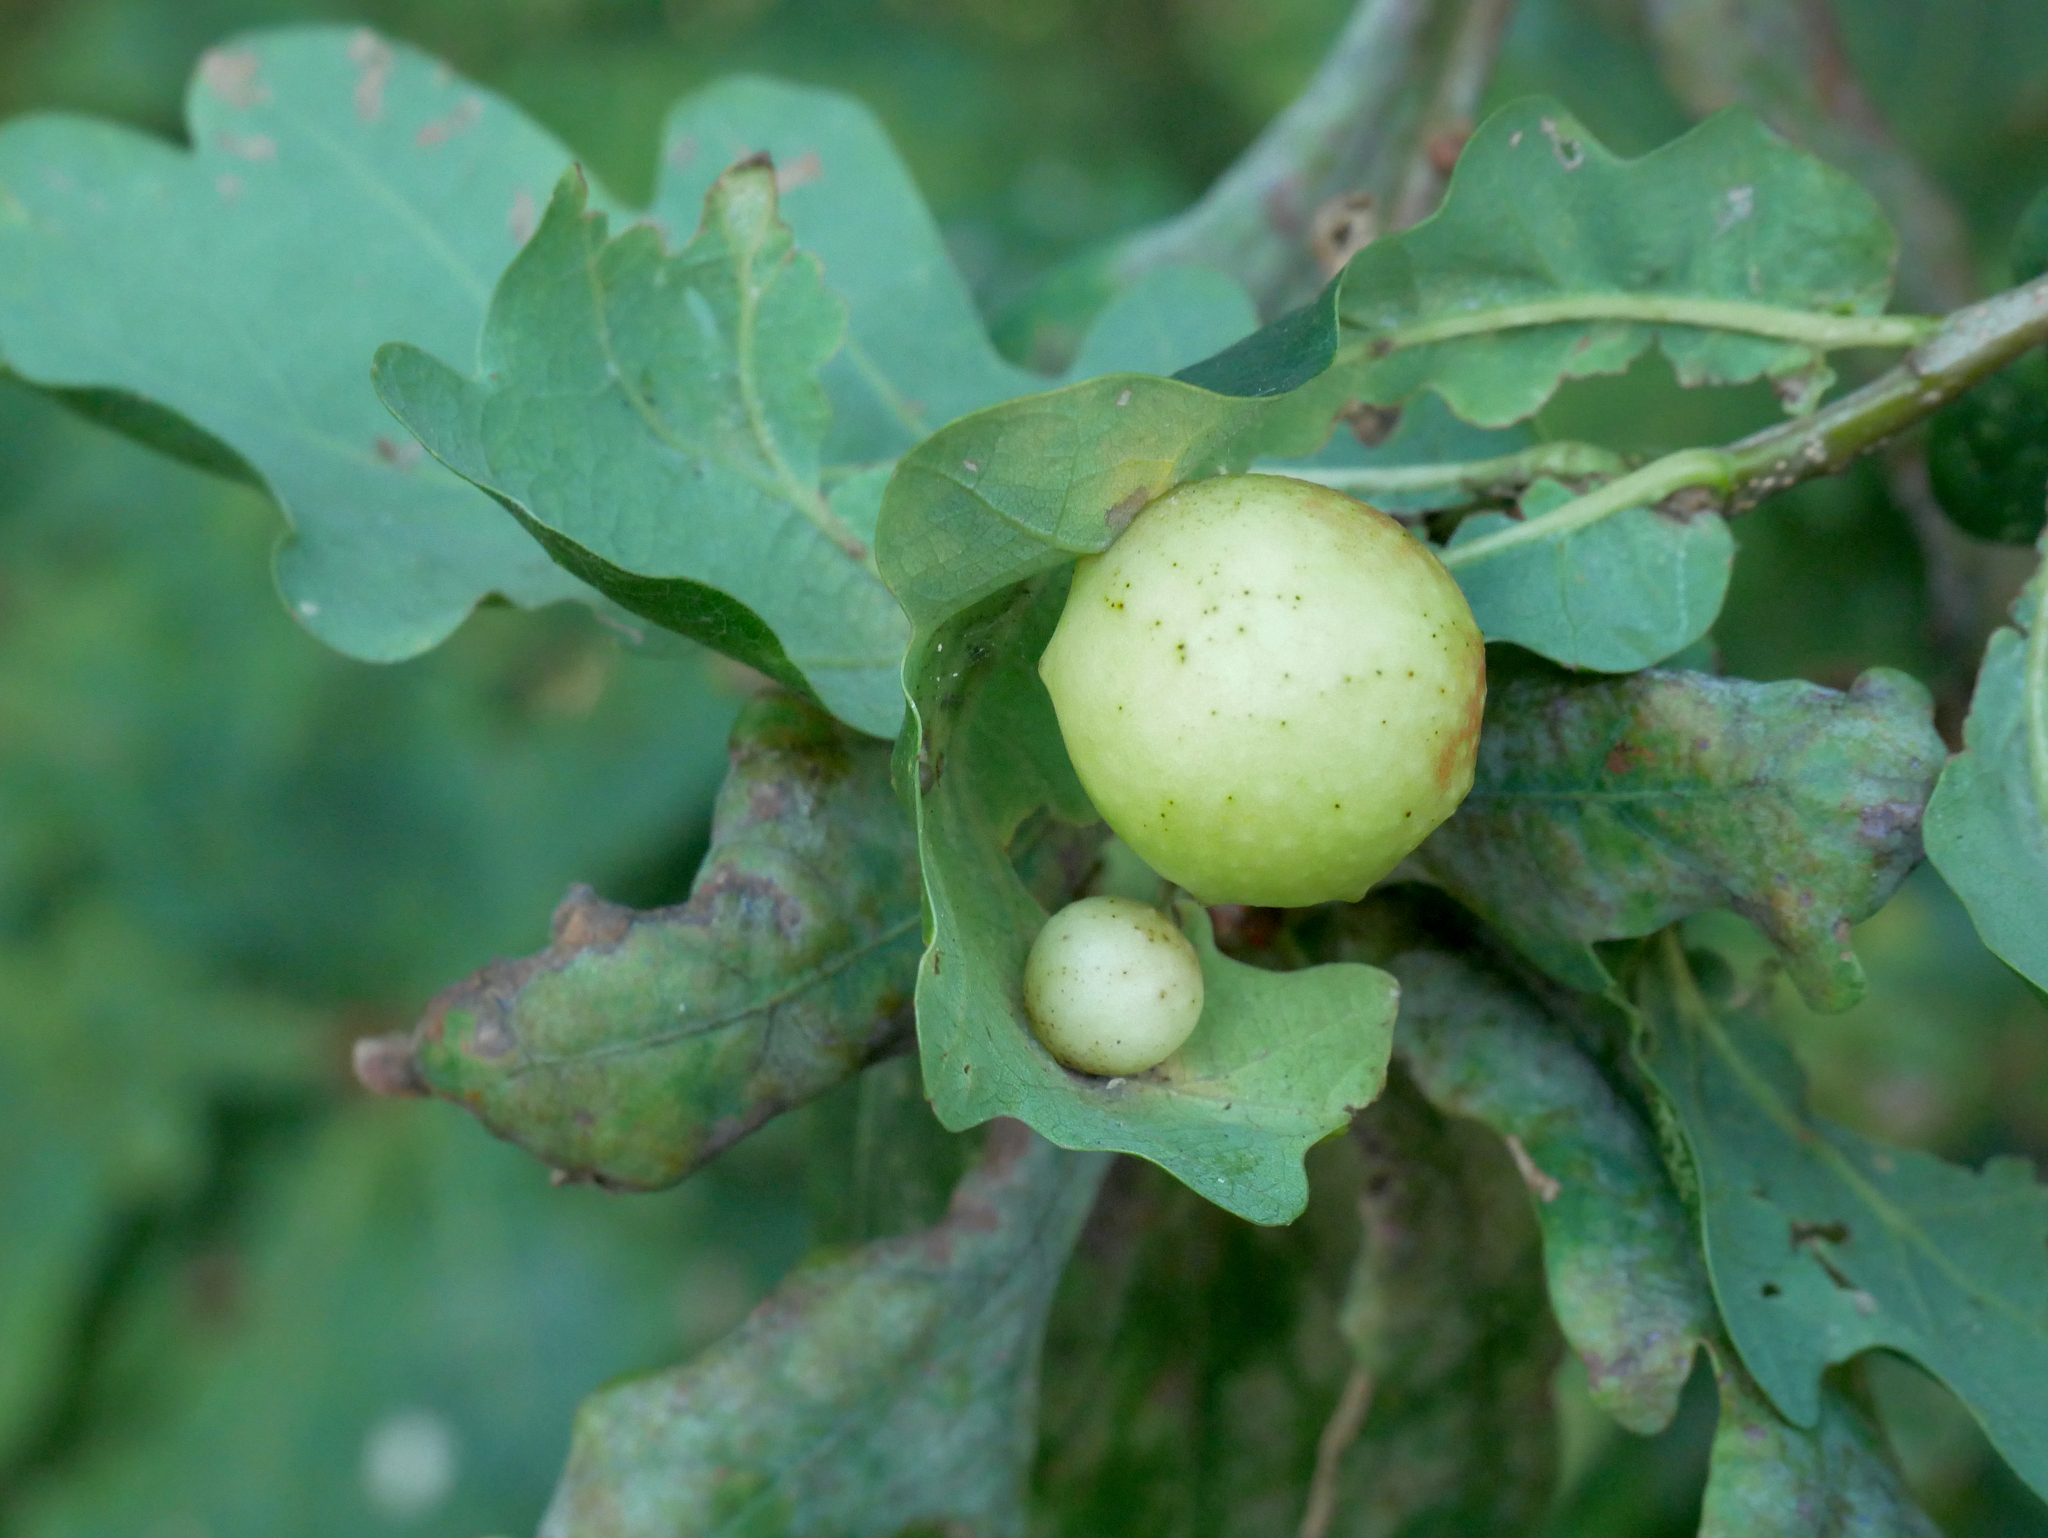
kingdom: Animalia
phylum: Arthropoda
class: Insecta
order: Hymenoptera
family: Cynipidae
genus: Cynips
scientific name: Cynips quercusfolii
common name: Cherry gall
